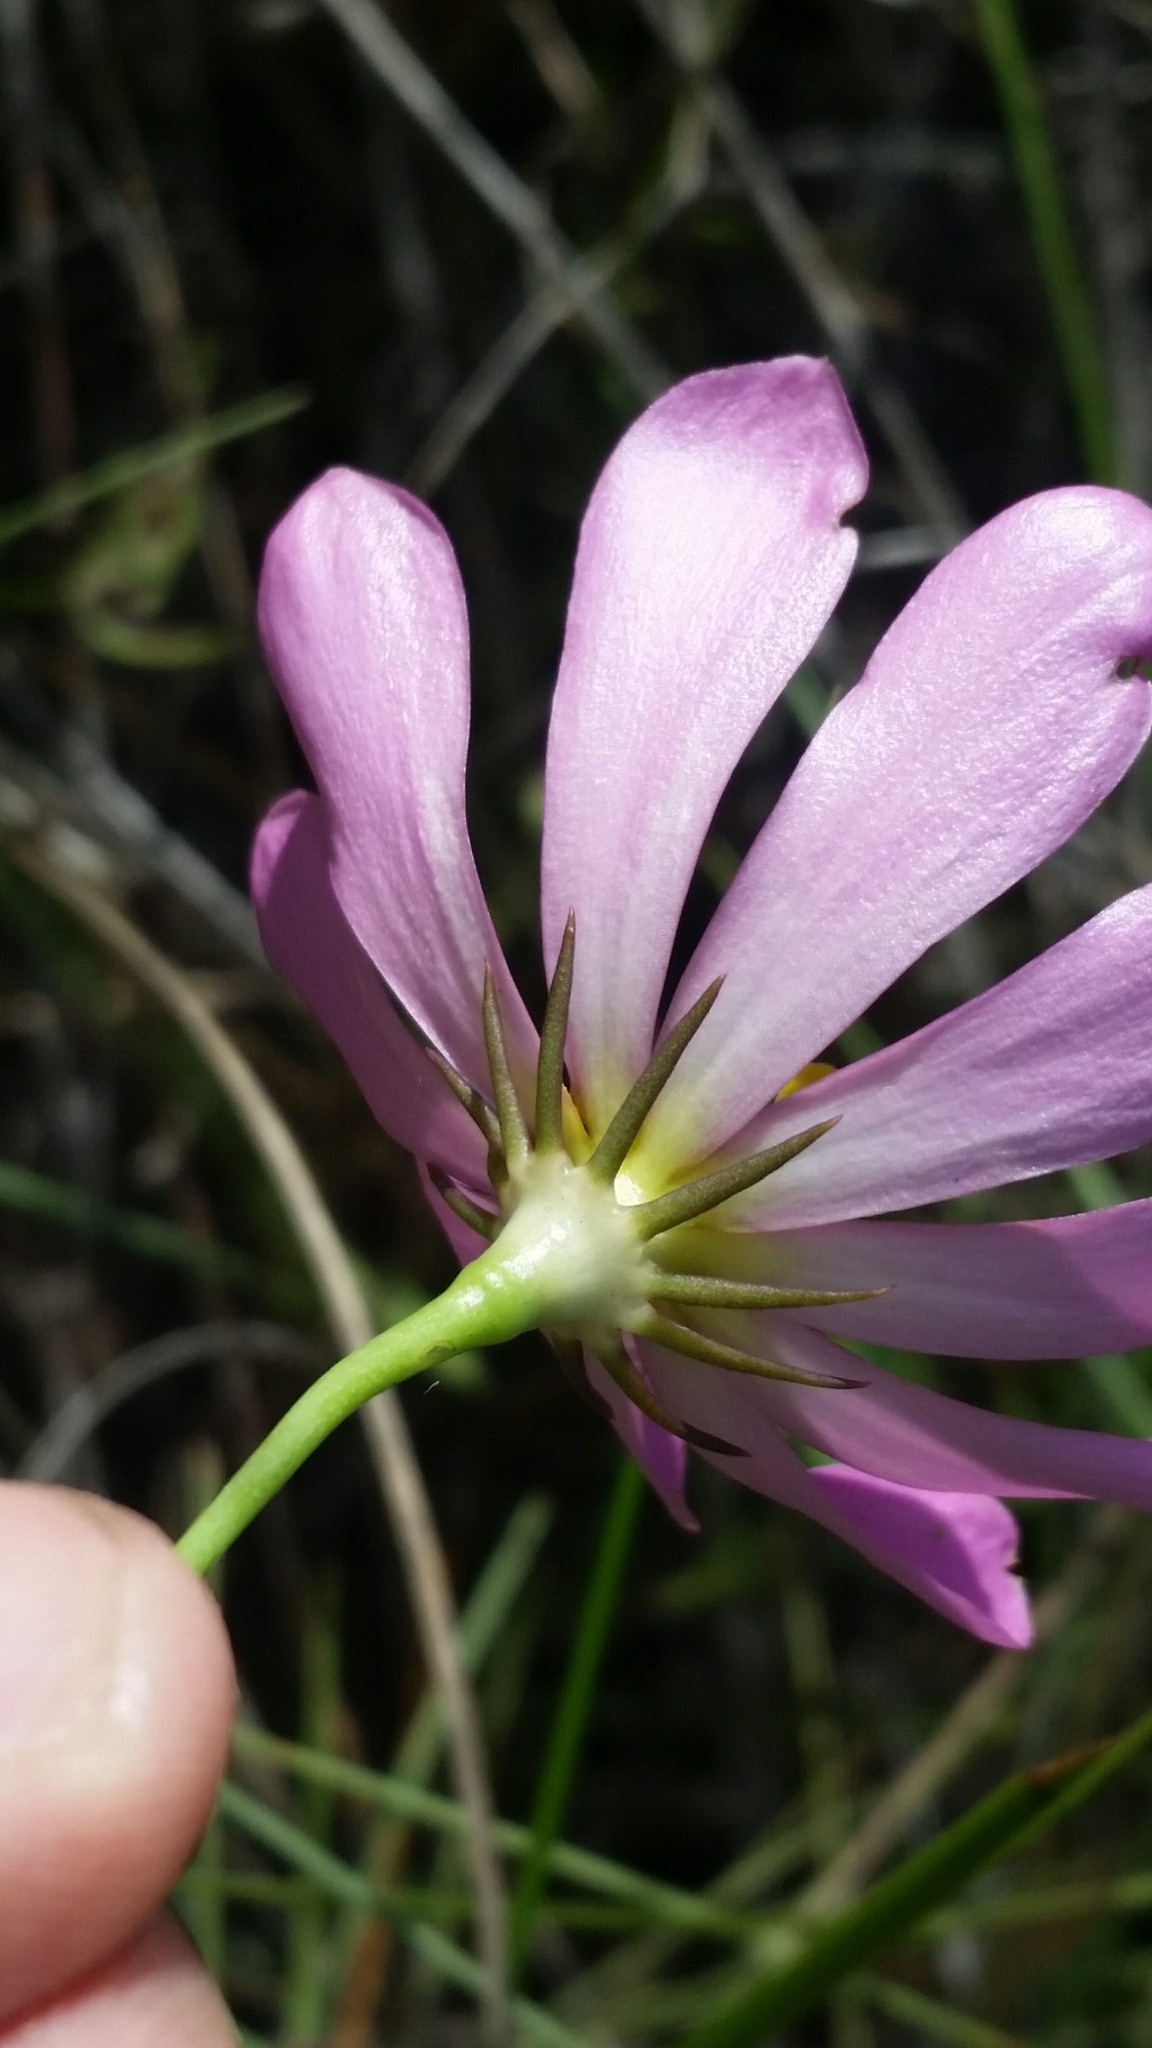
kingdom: Plantae
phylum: Tracheophyta
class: Magnoliopsida
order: Gentianales
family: Gentianaceae
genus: Sabatia
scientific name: Sabatia decandra
